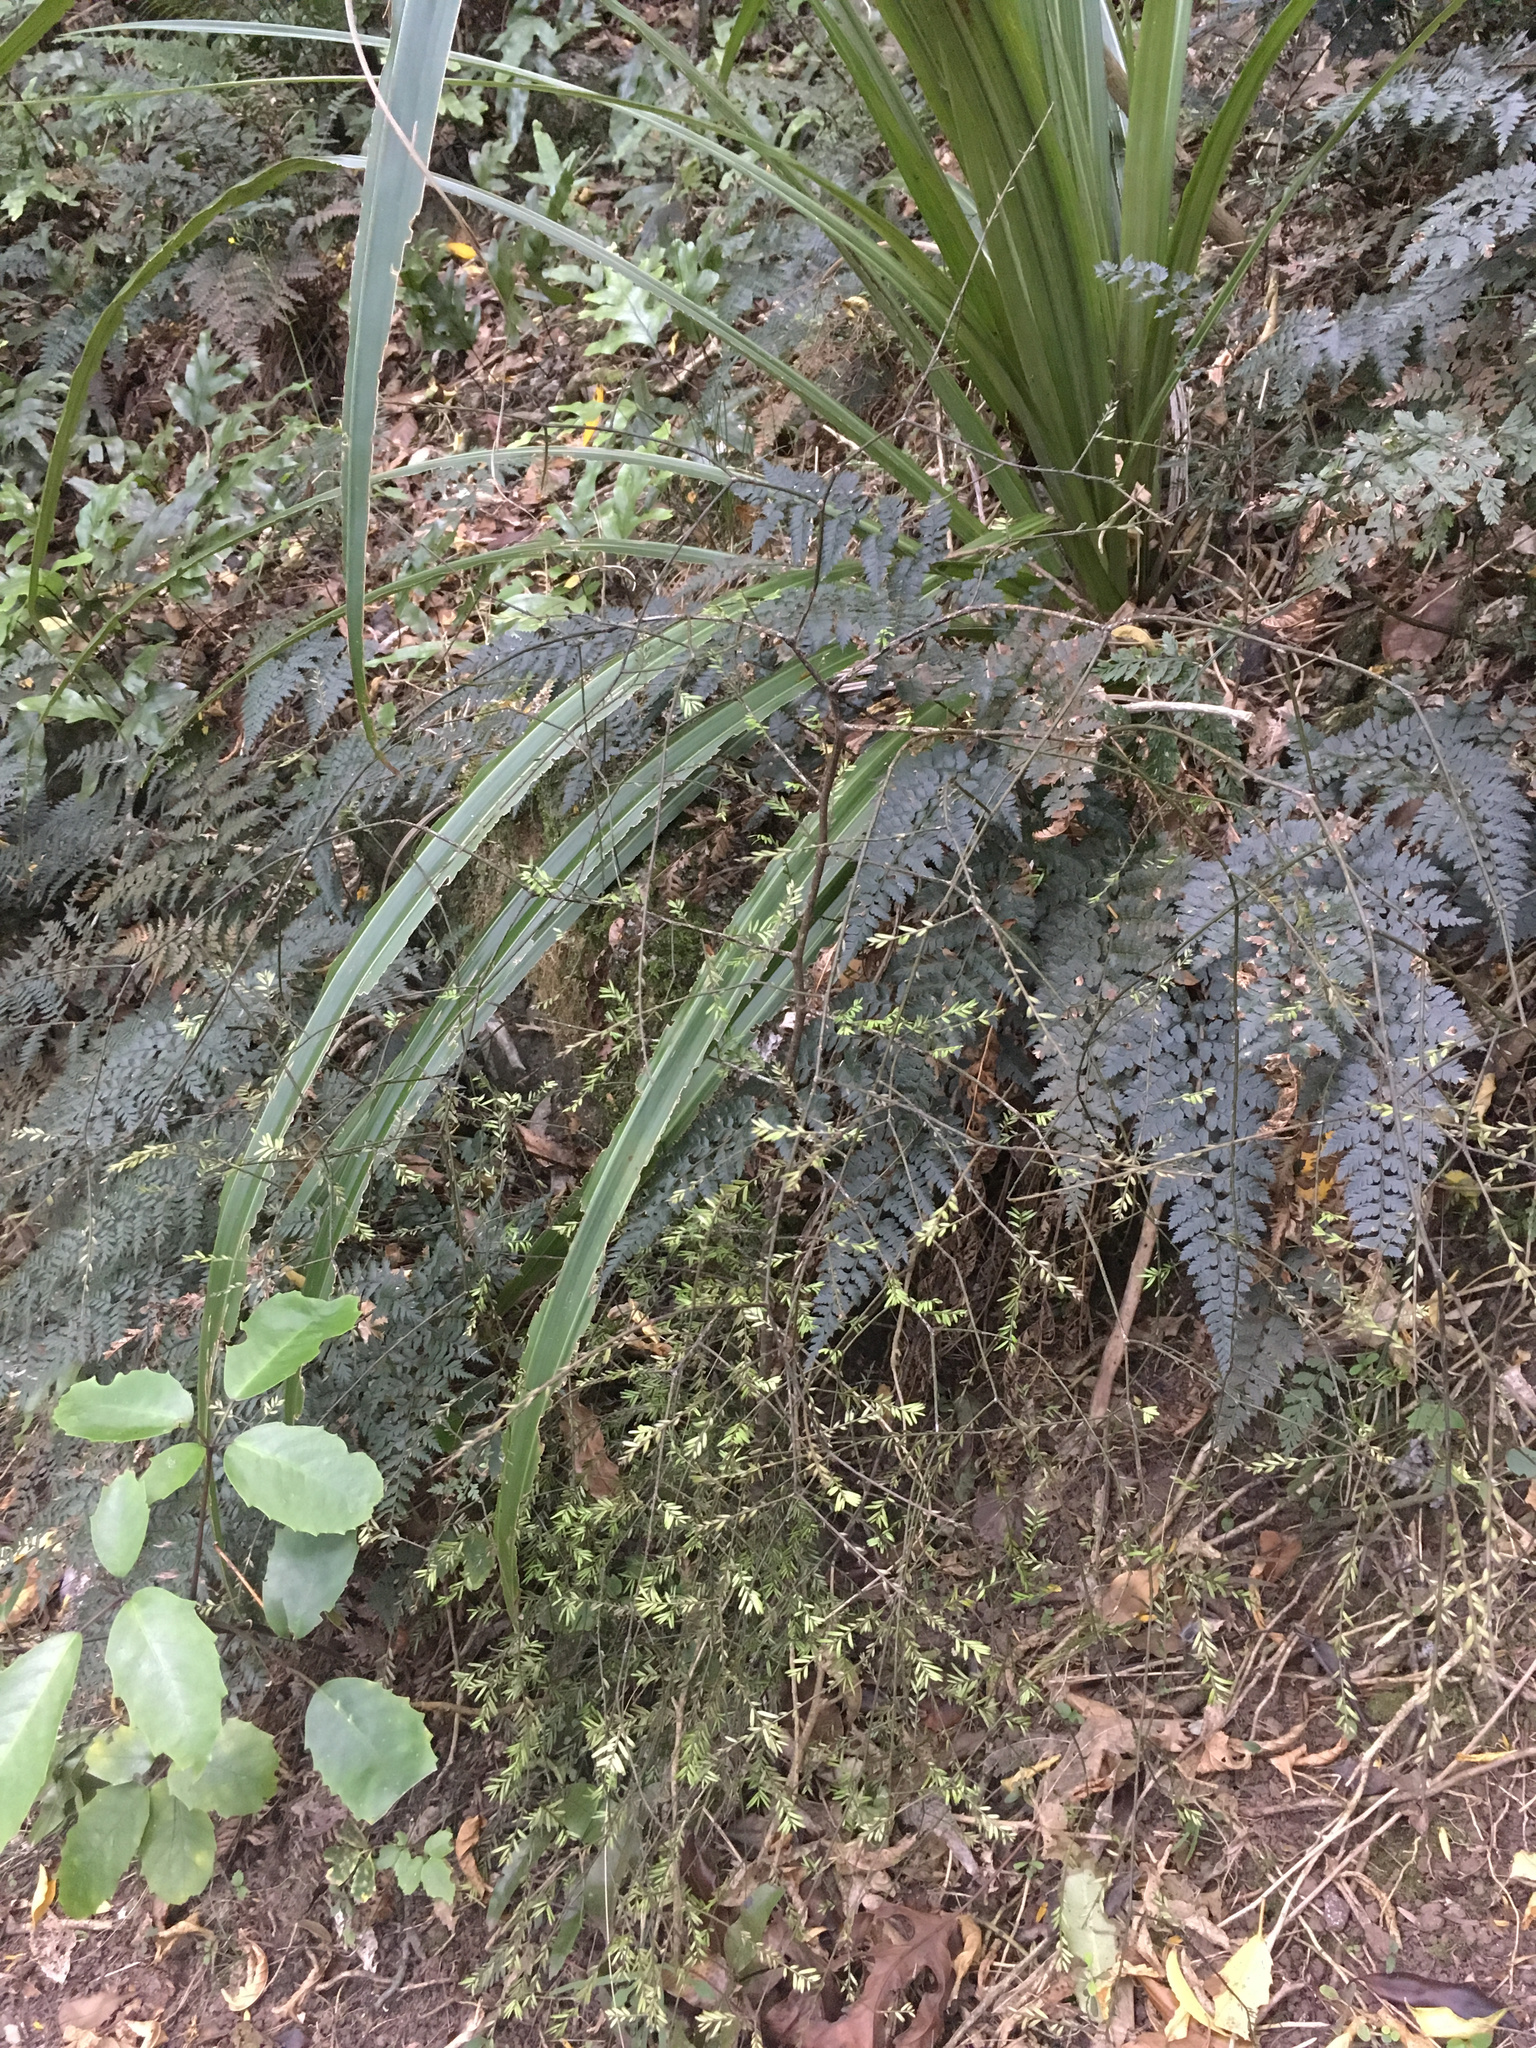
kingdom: Plantae
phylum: Tracheophyta
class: Pinopsida
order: Pinales
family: Podocarpaceae
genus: Prumnopitys
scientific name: Prumnopitys taxifolia
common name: Matai
